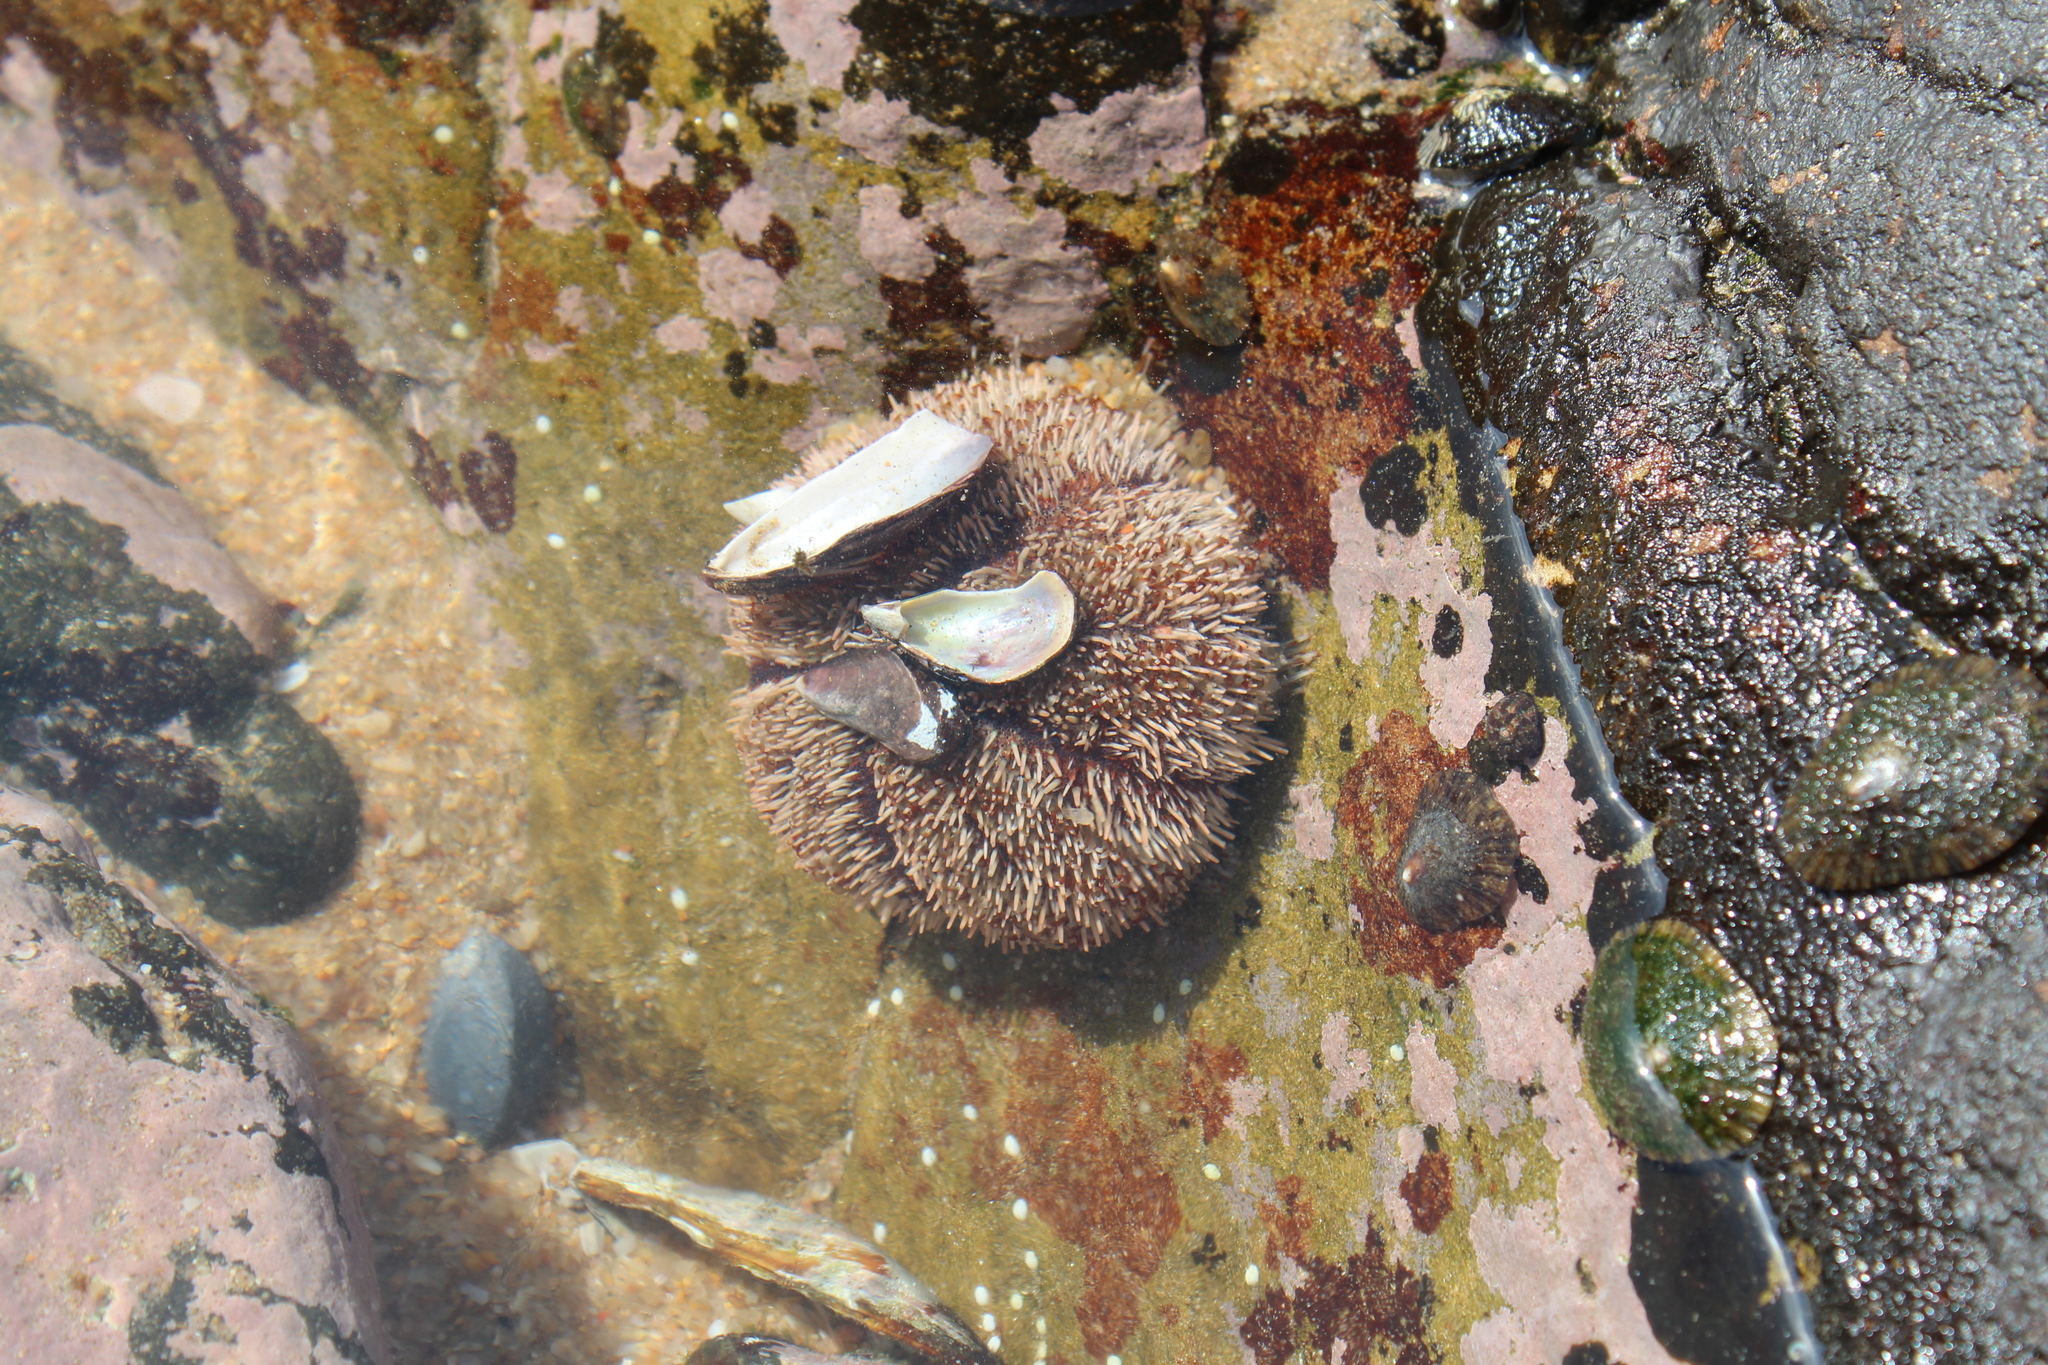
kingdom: Animalia
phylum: Echinodermata
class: Echinoidea
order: Camarodonta
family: Toxopneustidae
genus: Tripneustes
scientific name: Tripneustes gratilla
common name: Bischofsmützenseeigel
